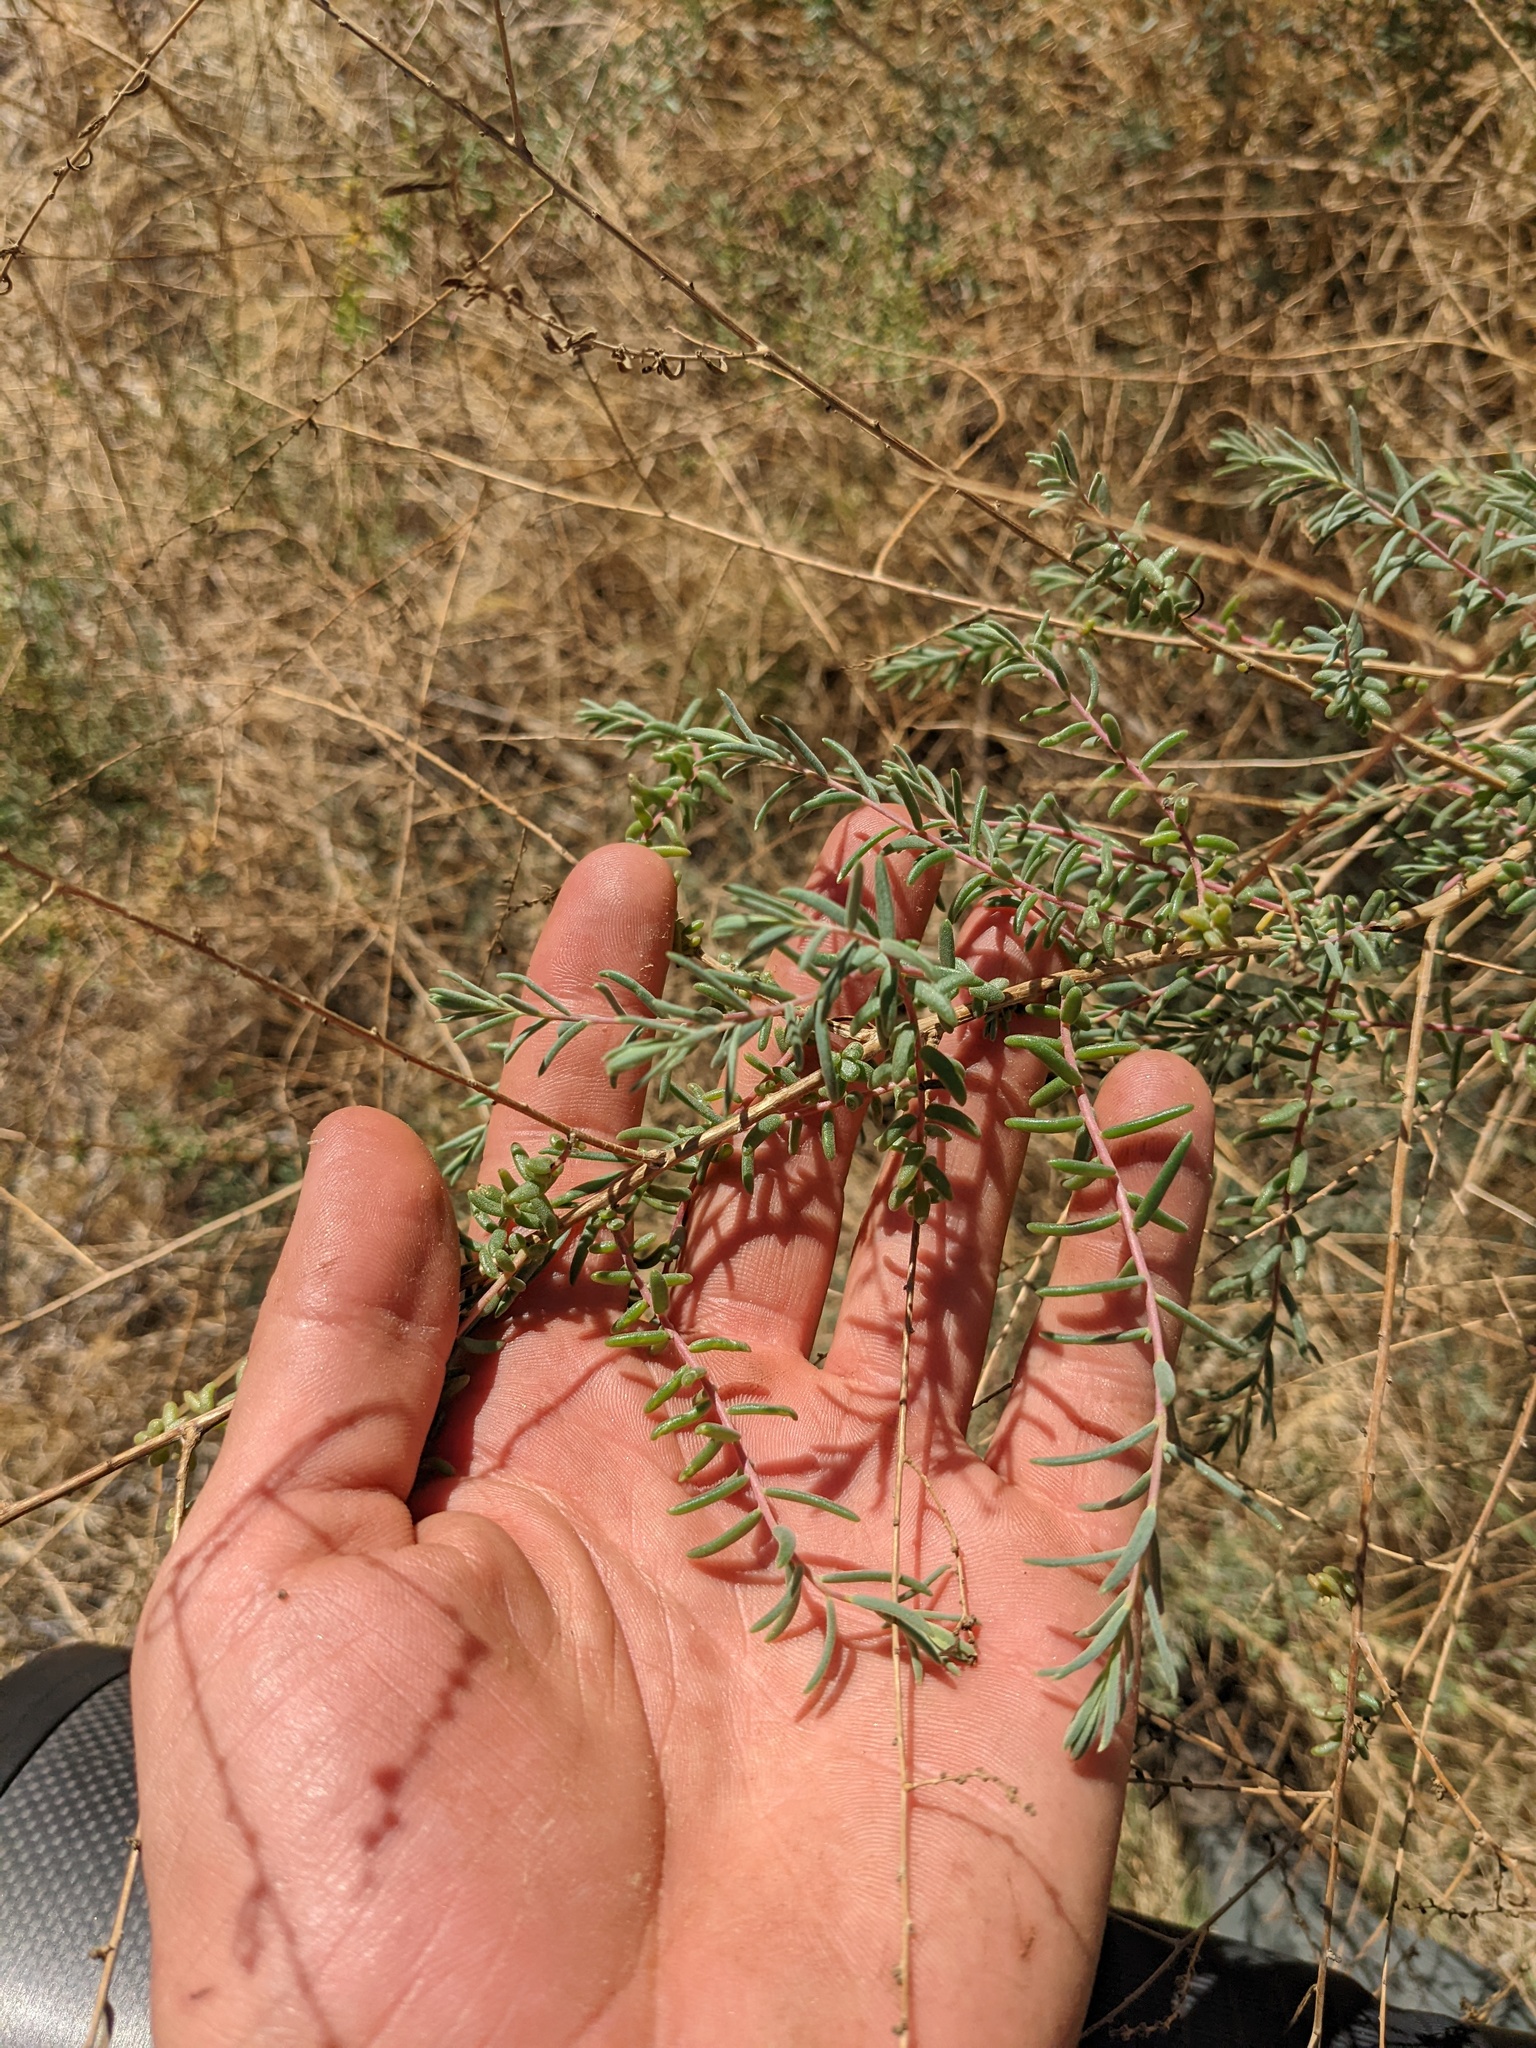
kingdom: Plantae
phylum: Tracheophyta
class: Magnoliopsida
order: Caryophyllales
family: Amaranthaceae
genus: Suaeda
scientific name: Suaeda nigra
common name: Bush seepweed
